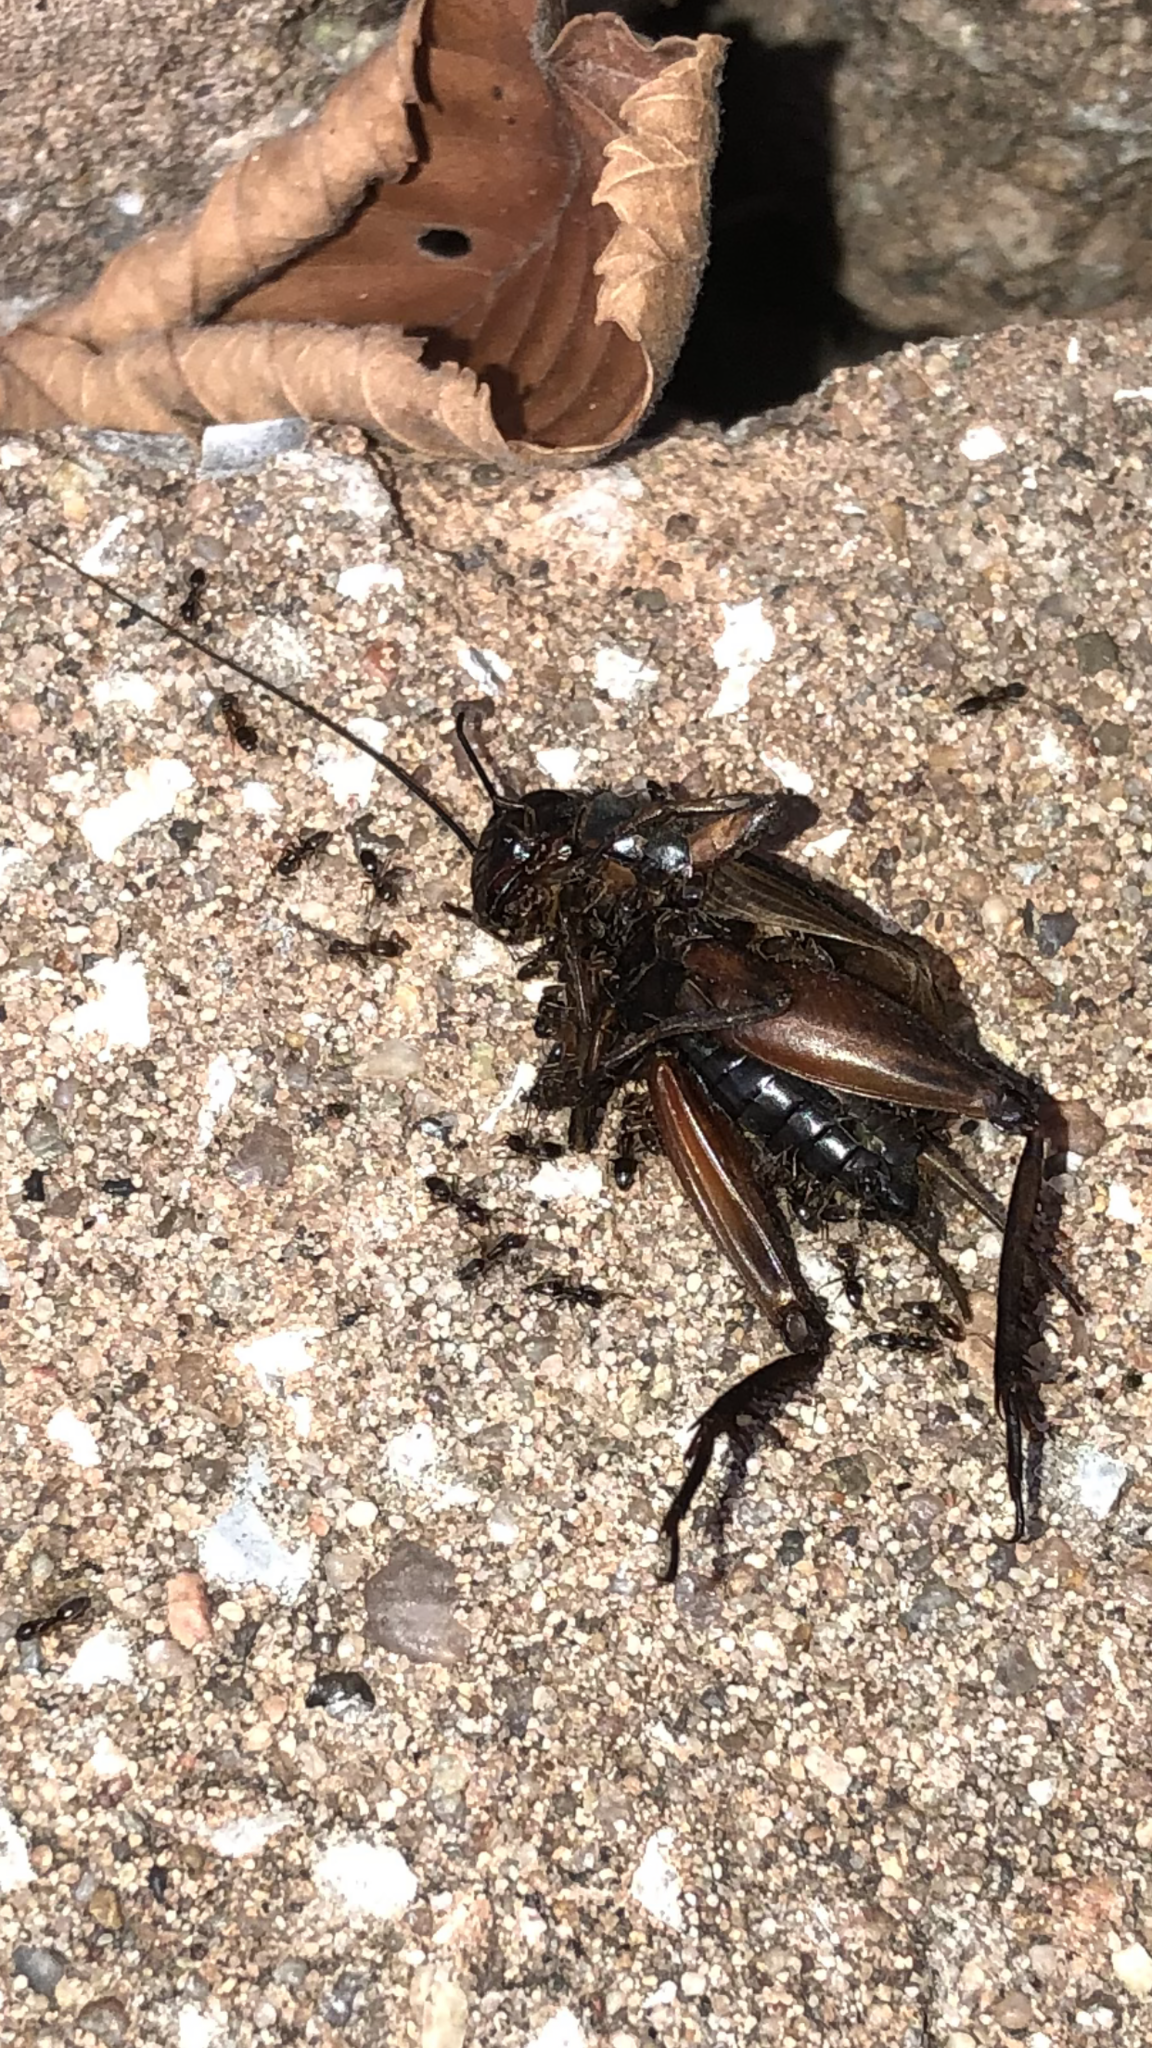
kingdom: Animalia
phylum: Arthropoda
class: Insecta
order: Orthoptera
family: Gryllidae
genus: Gryllus
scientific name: Gryllus pennsylvanicus
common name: Fall field cricket
